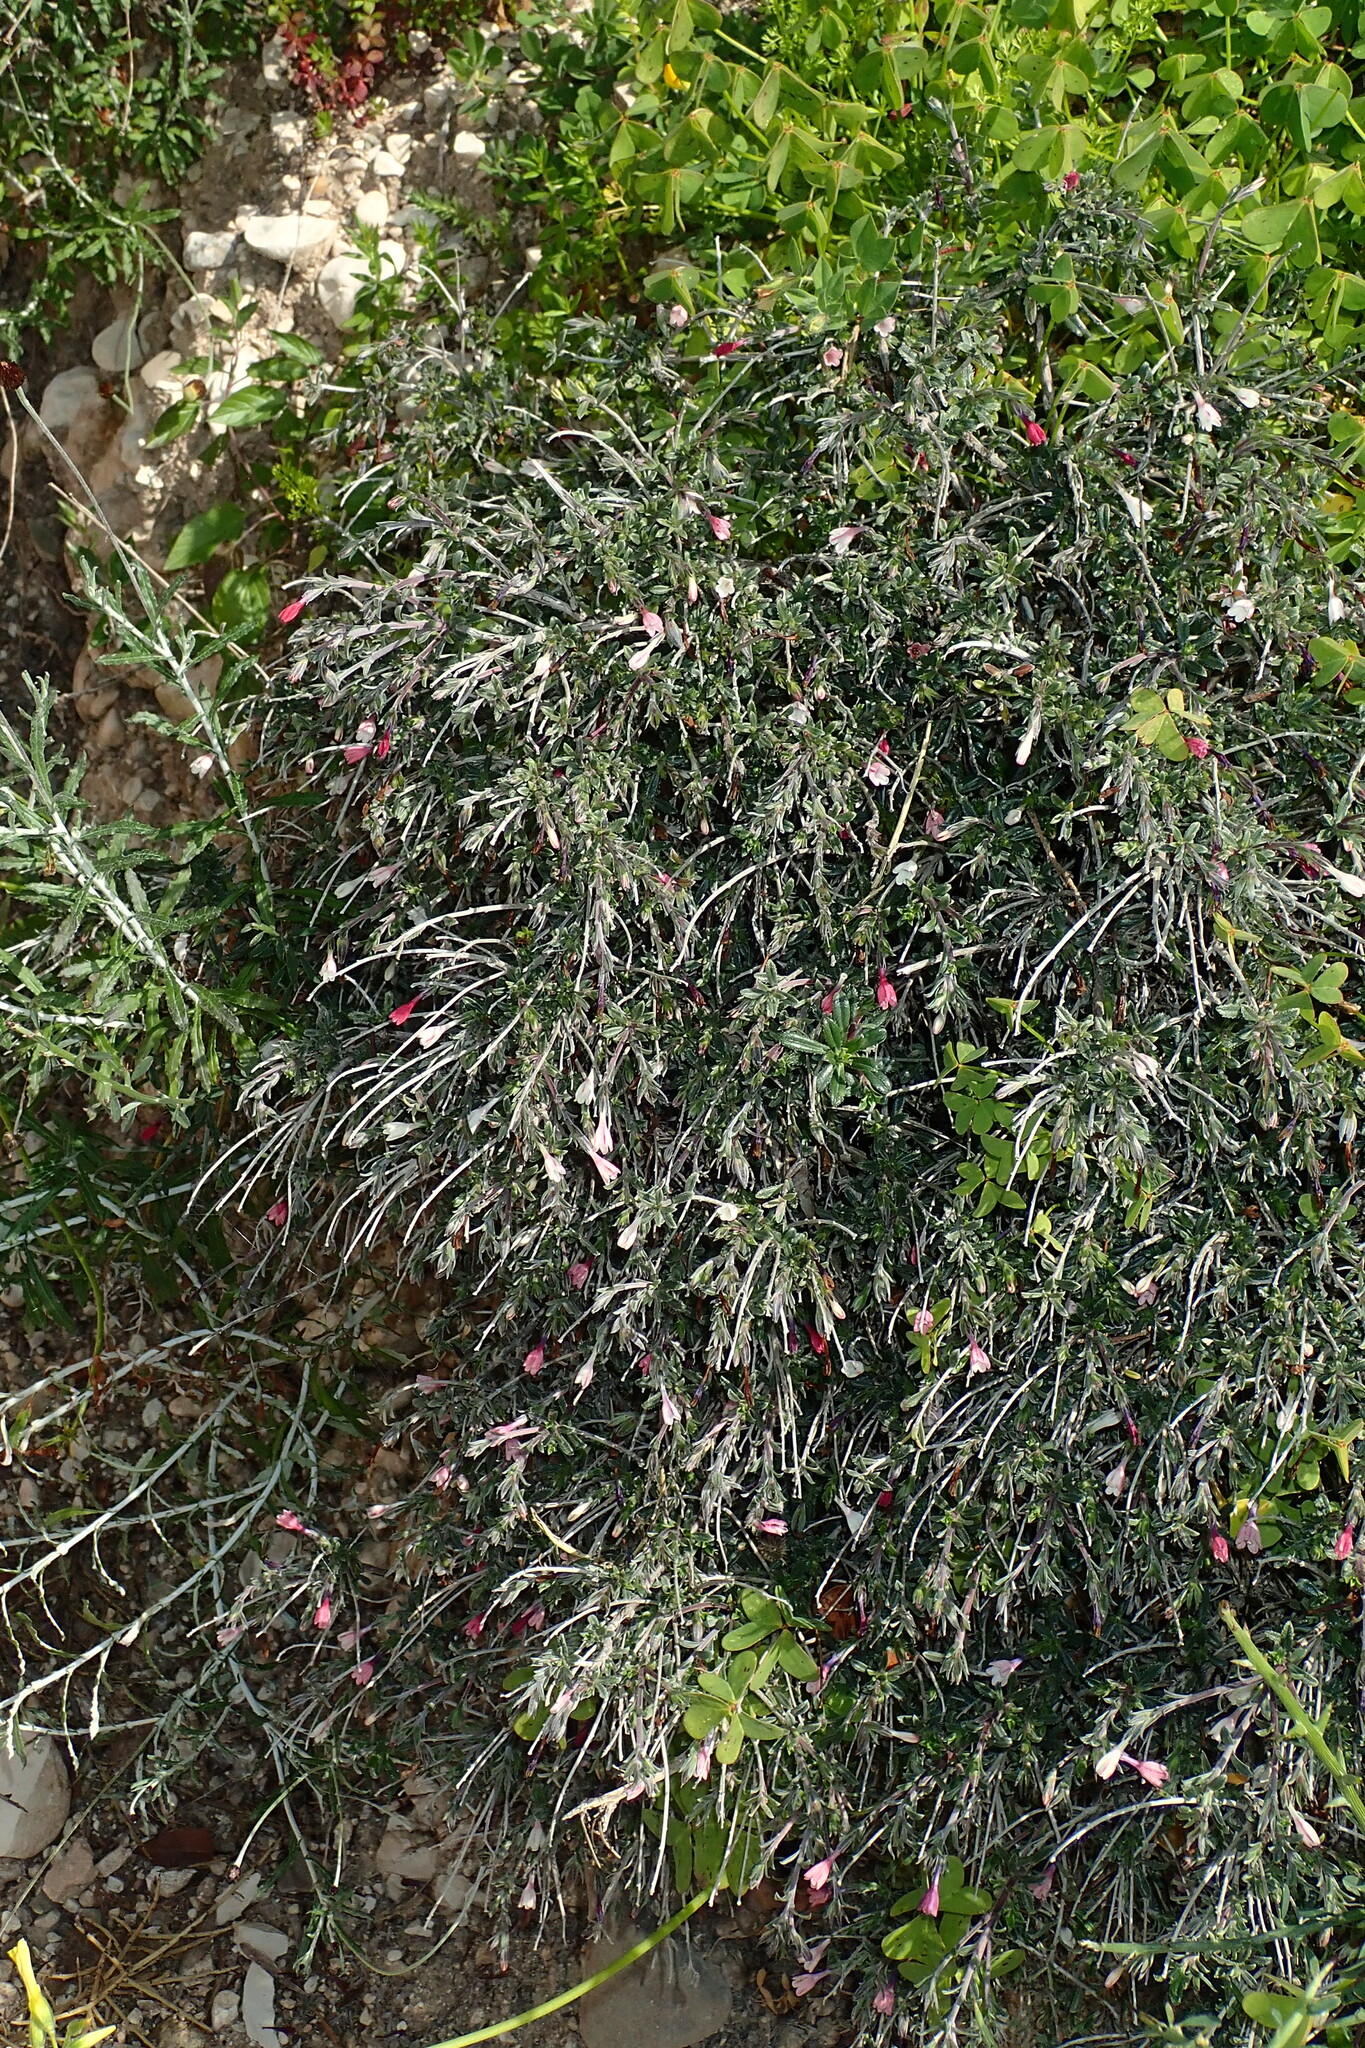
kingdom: Plantae
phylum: Tracheophyta
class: Magnoliopsida
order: Boraginales
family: Boraginaceae
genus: Lithodora
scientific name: Lithodora hispidula
